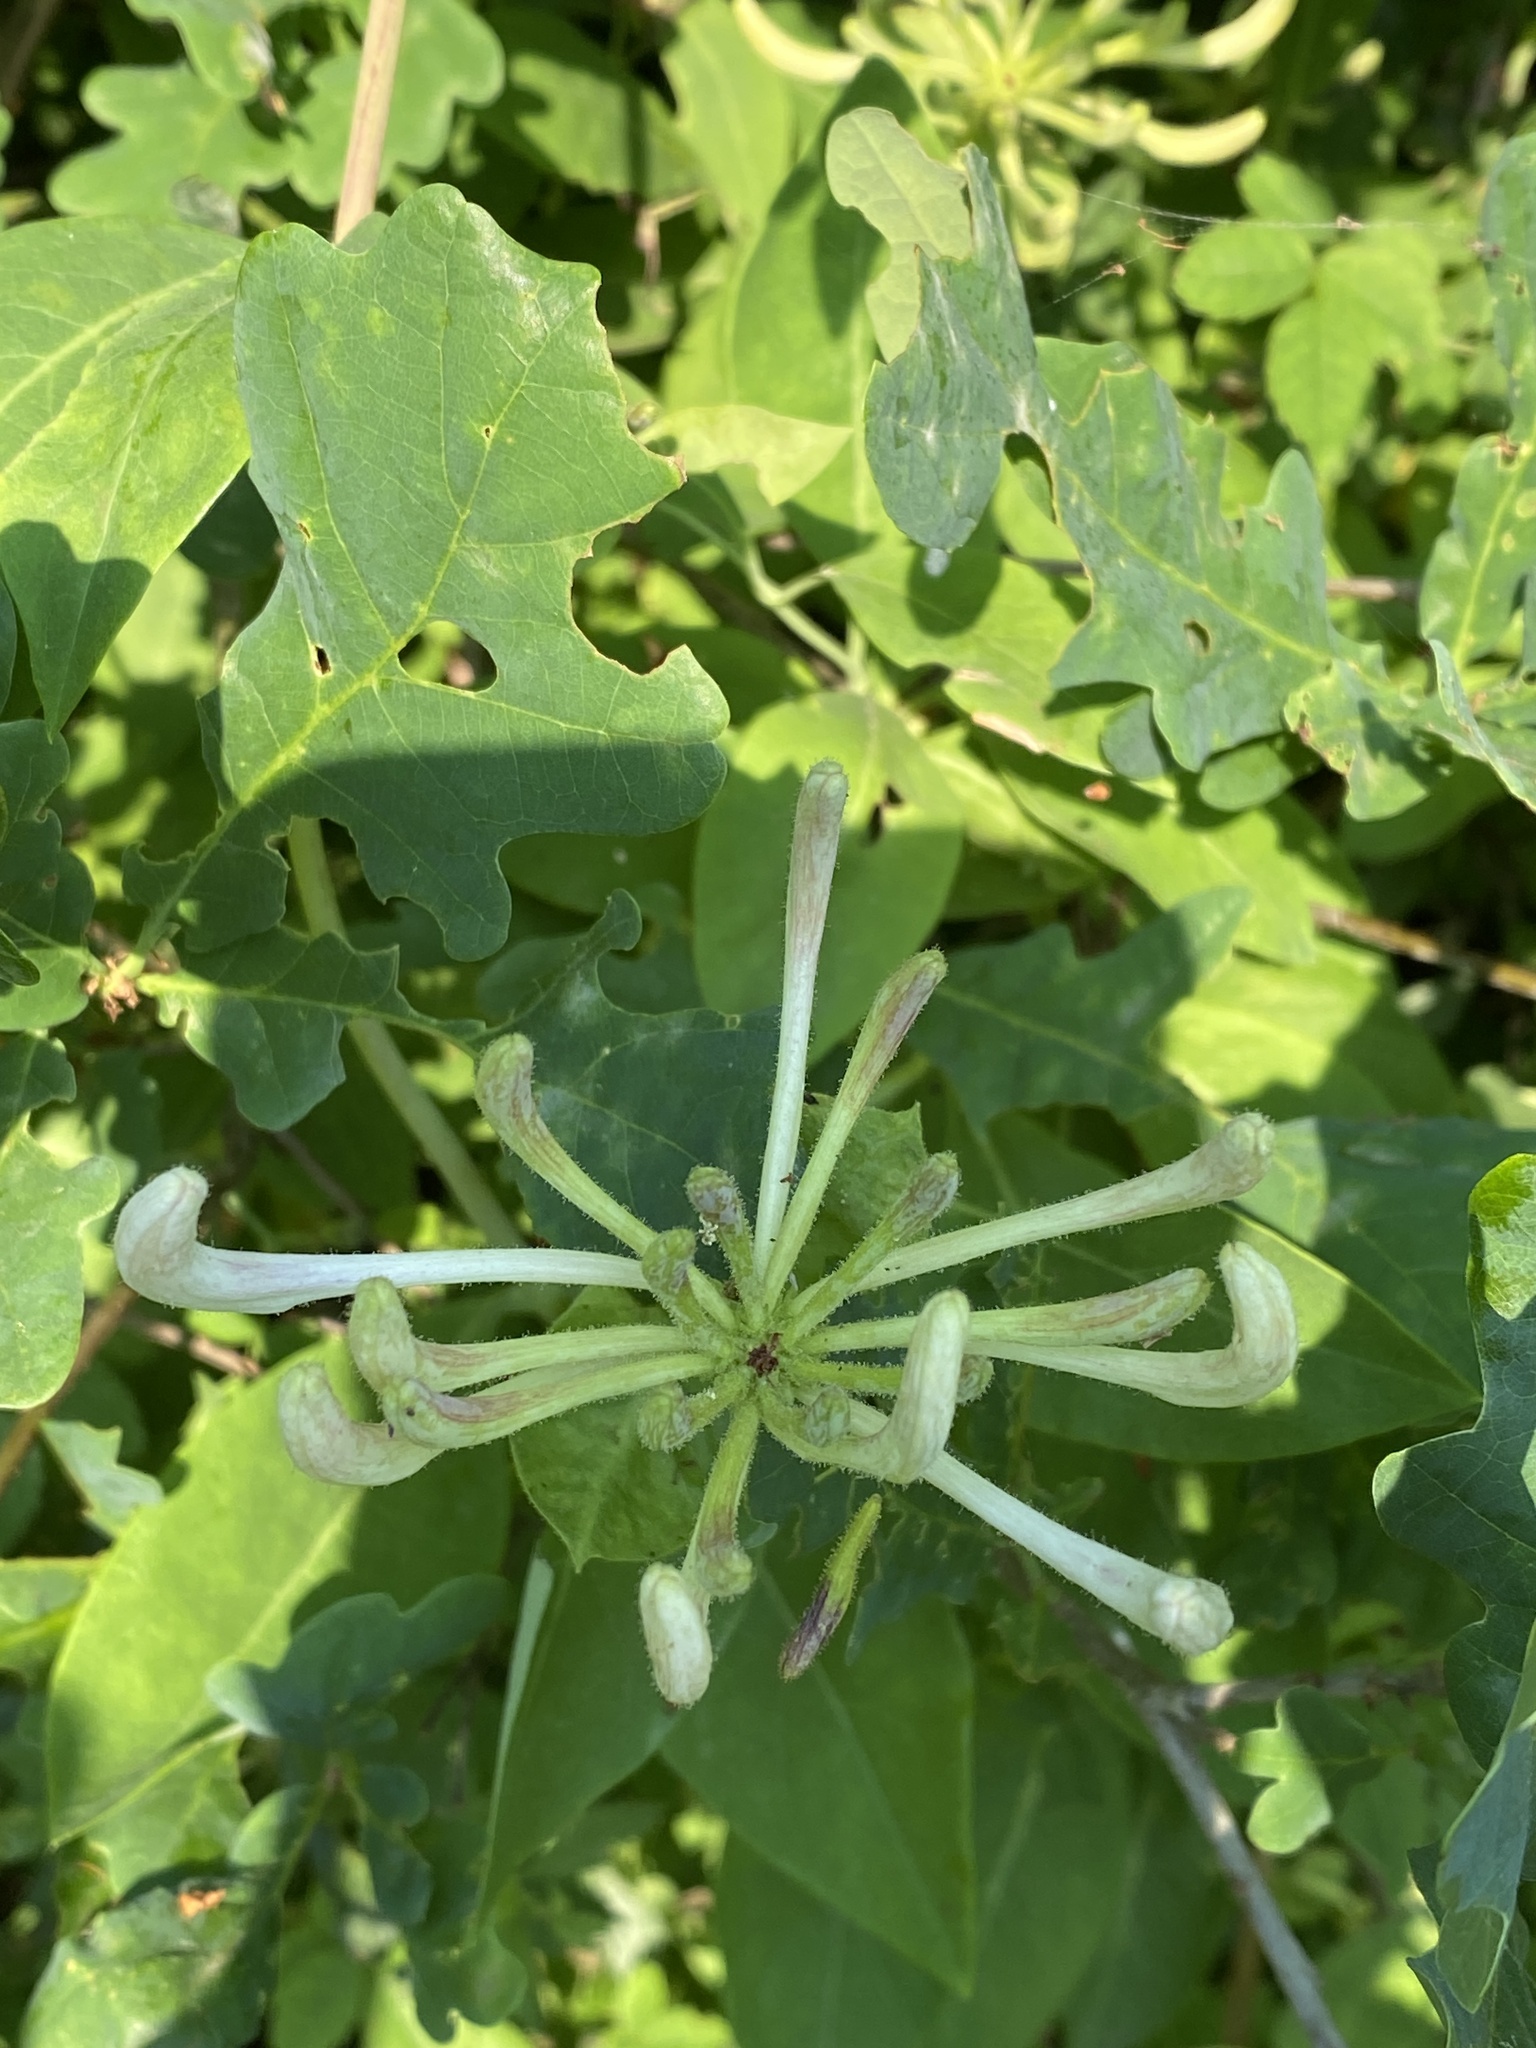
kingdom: Plantae
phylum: Tracheophyta
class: Magnoliopsida
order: Dipsacales
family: Caprifoliaceae
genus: Lonicera
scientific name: Lonicera periclymenum
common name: European honeysuckle
